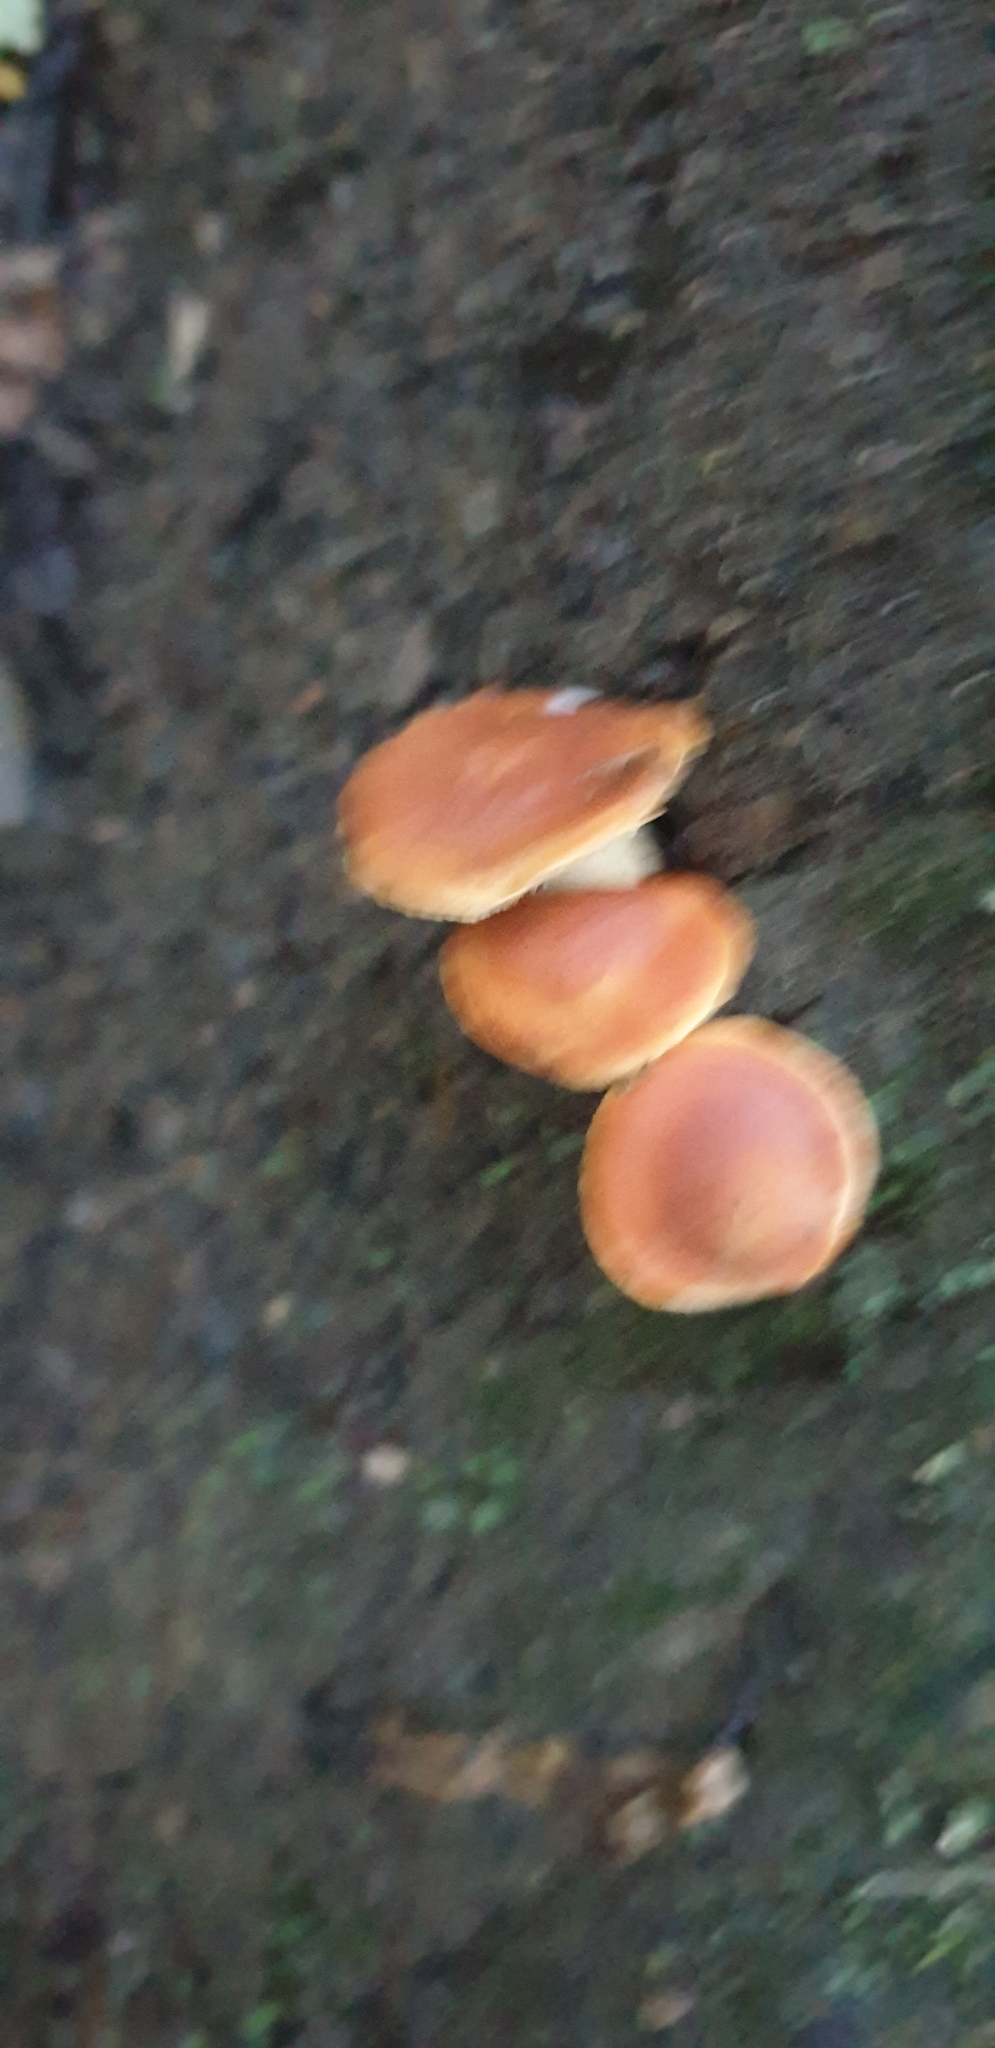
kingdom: Fungi
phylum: Basidiomycota
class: Agaricomycetes
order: Agaricales
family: Hygrophoraceae
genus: Cuphophyllus
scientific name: Cuphophyllus
